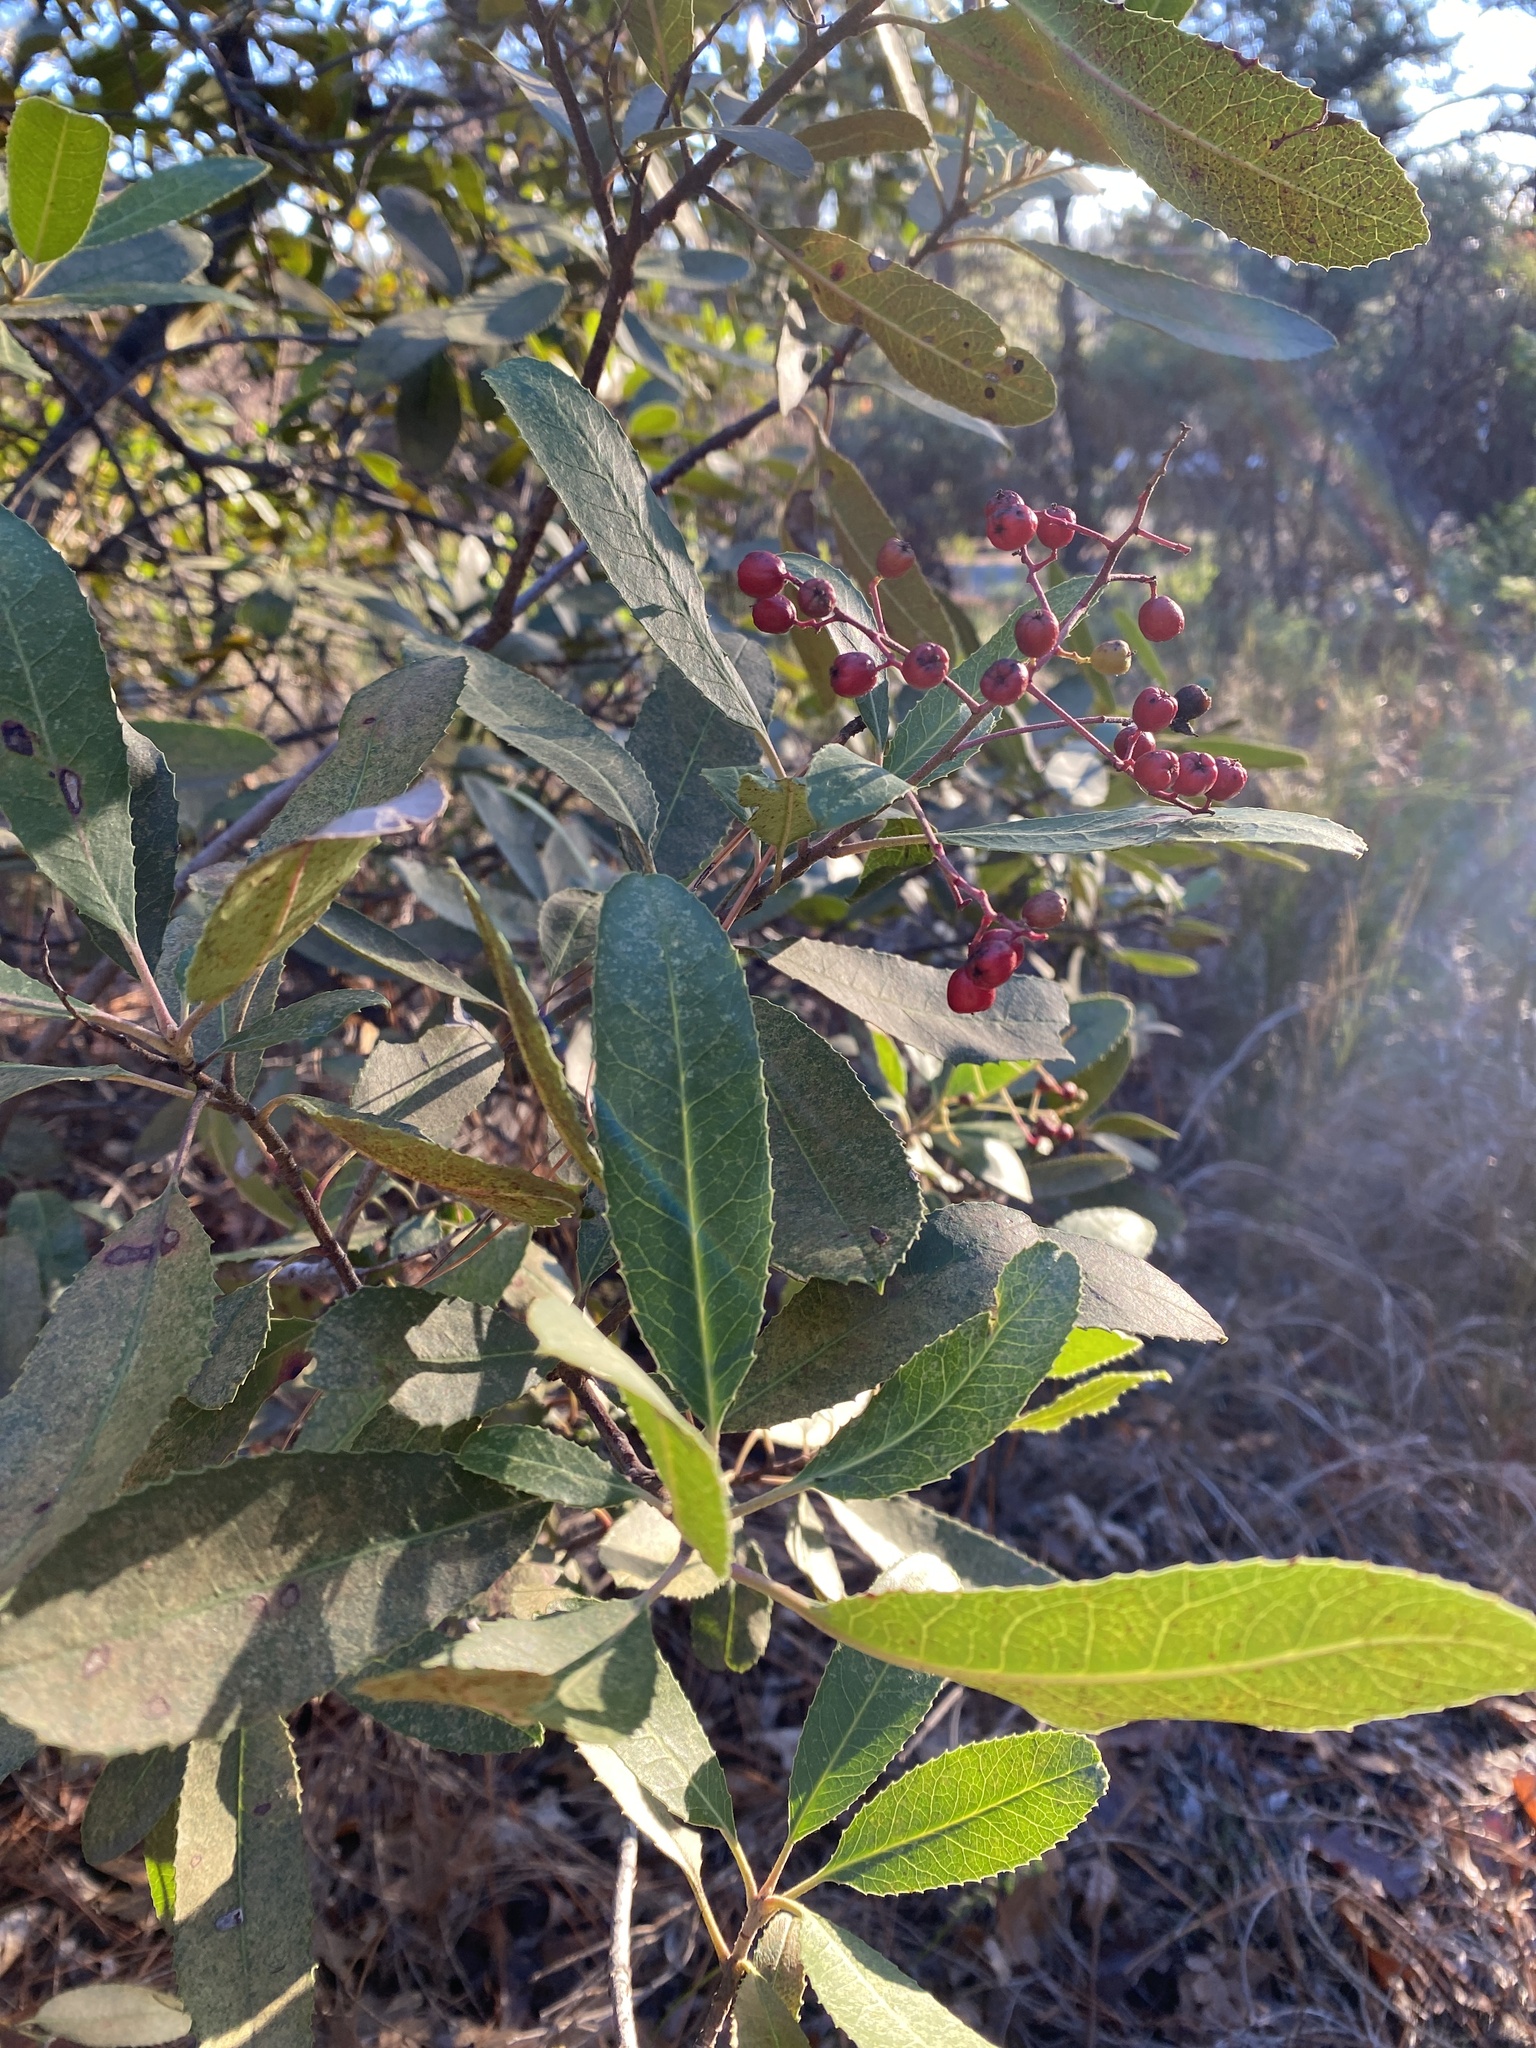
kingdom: Plantae
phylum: Tracheophyta
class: Magnoliopsida
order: Rosales
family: Rosaceae
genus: Heteromeles
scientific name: Heteromeles arbutifolia
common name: California-holly
